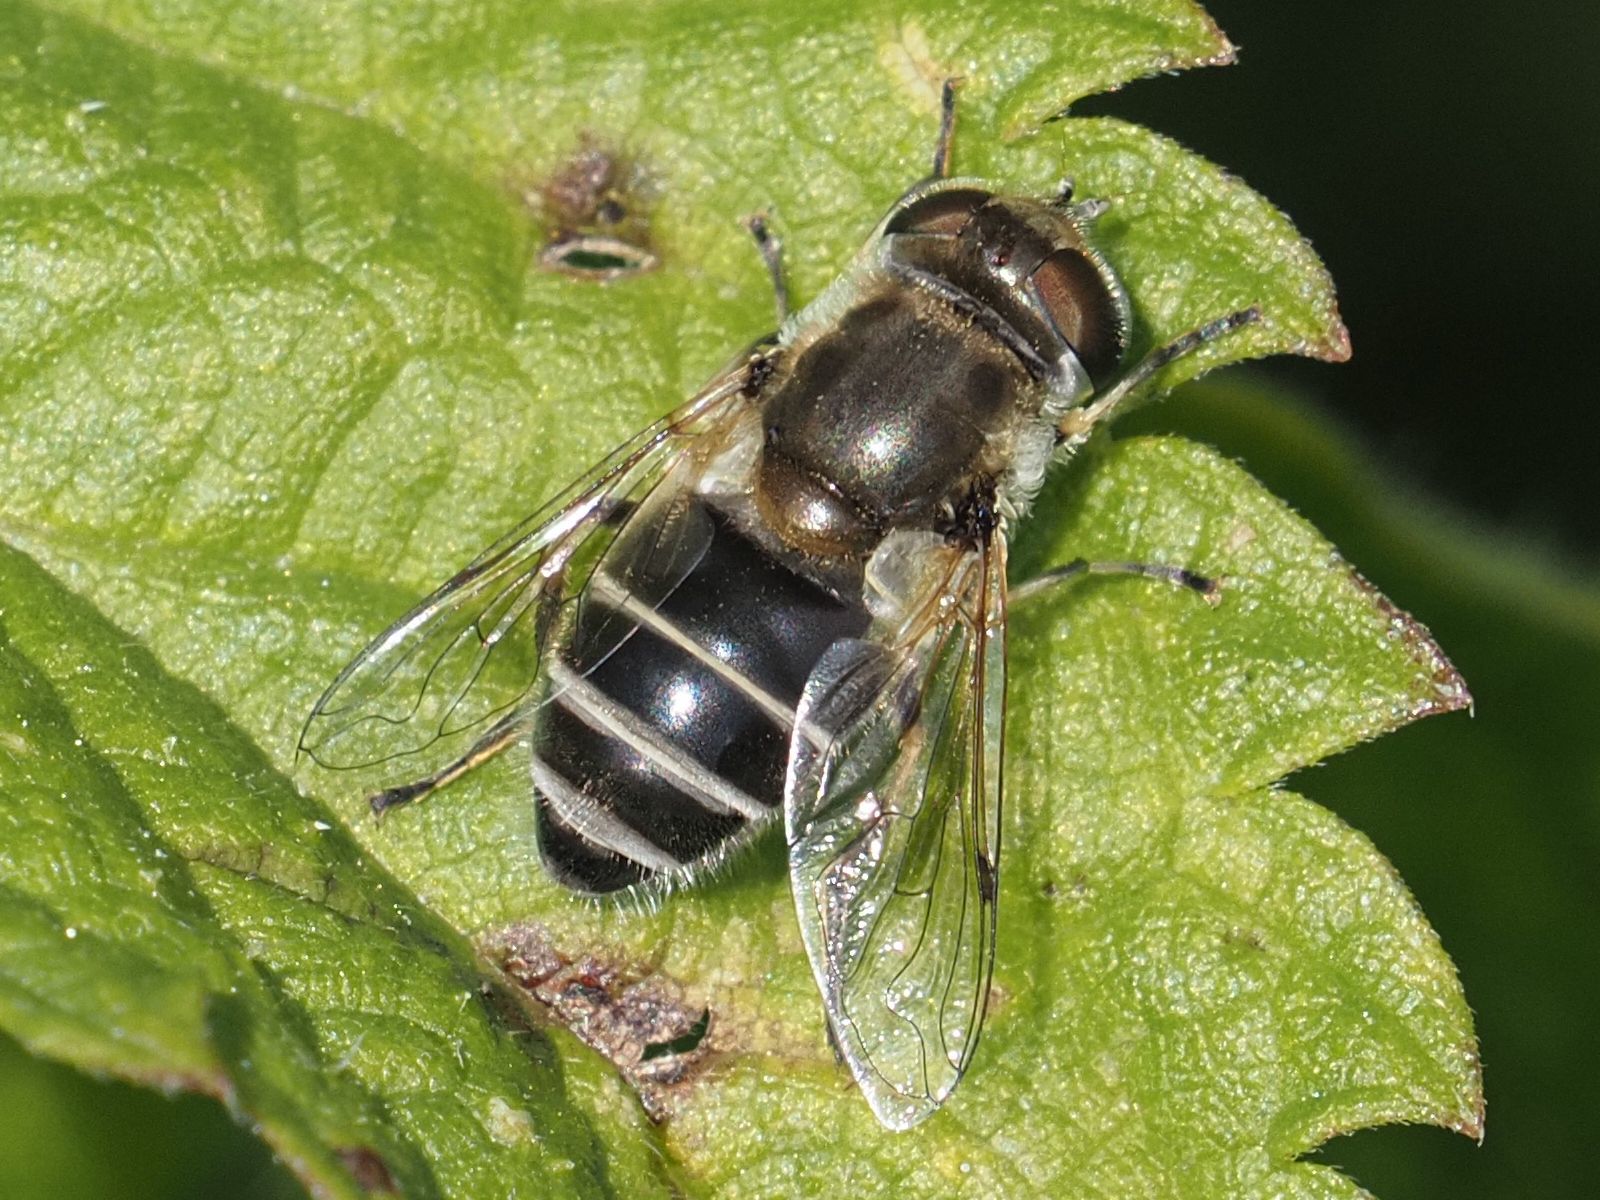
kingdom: Animalia
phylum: Arthropoda
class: Insecta
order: Diptera
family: Syrphidae
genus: Eristalis
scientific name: Eristalis arbustorum
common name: Hover fly
